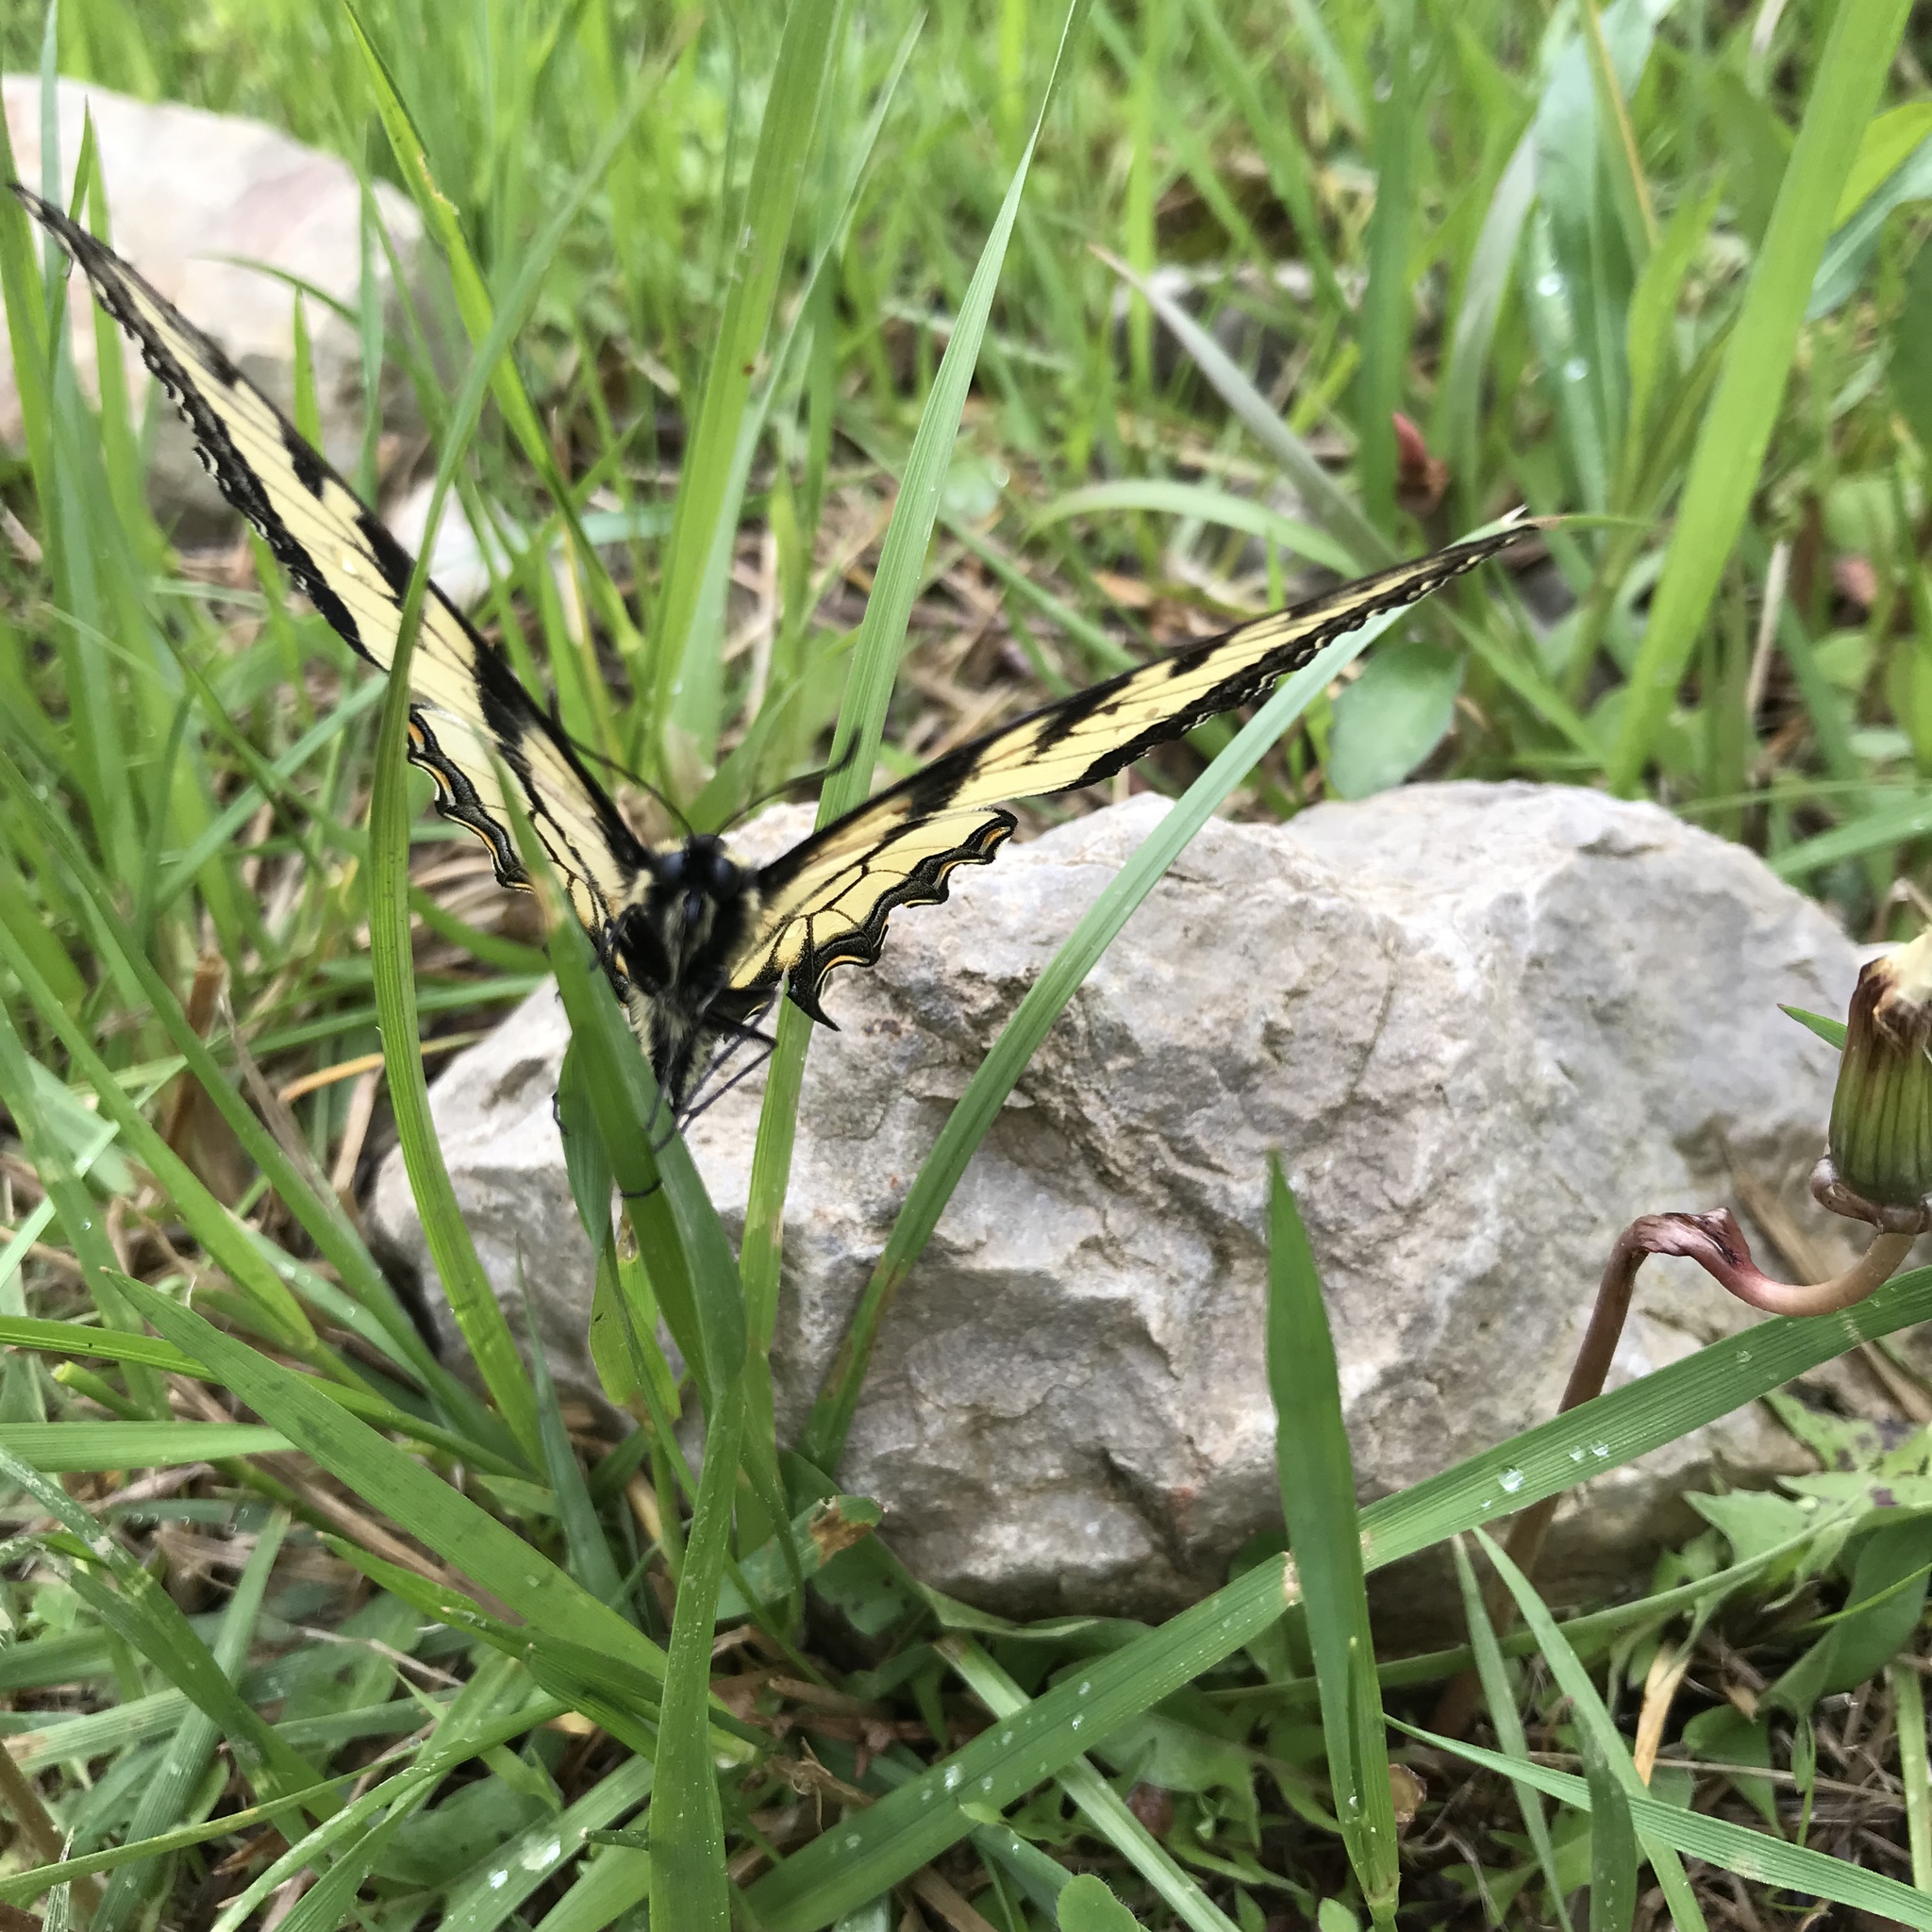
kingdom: Animalia
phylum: Arthropoda
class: Insecta
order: Lepidoptera
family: Papilionidae
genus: Papilio
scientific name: Papilio glaucus
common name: Tiger swallowtail
